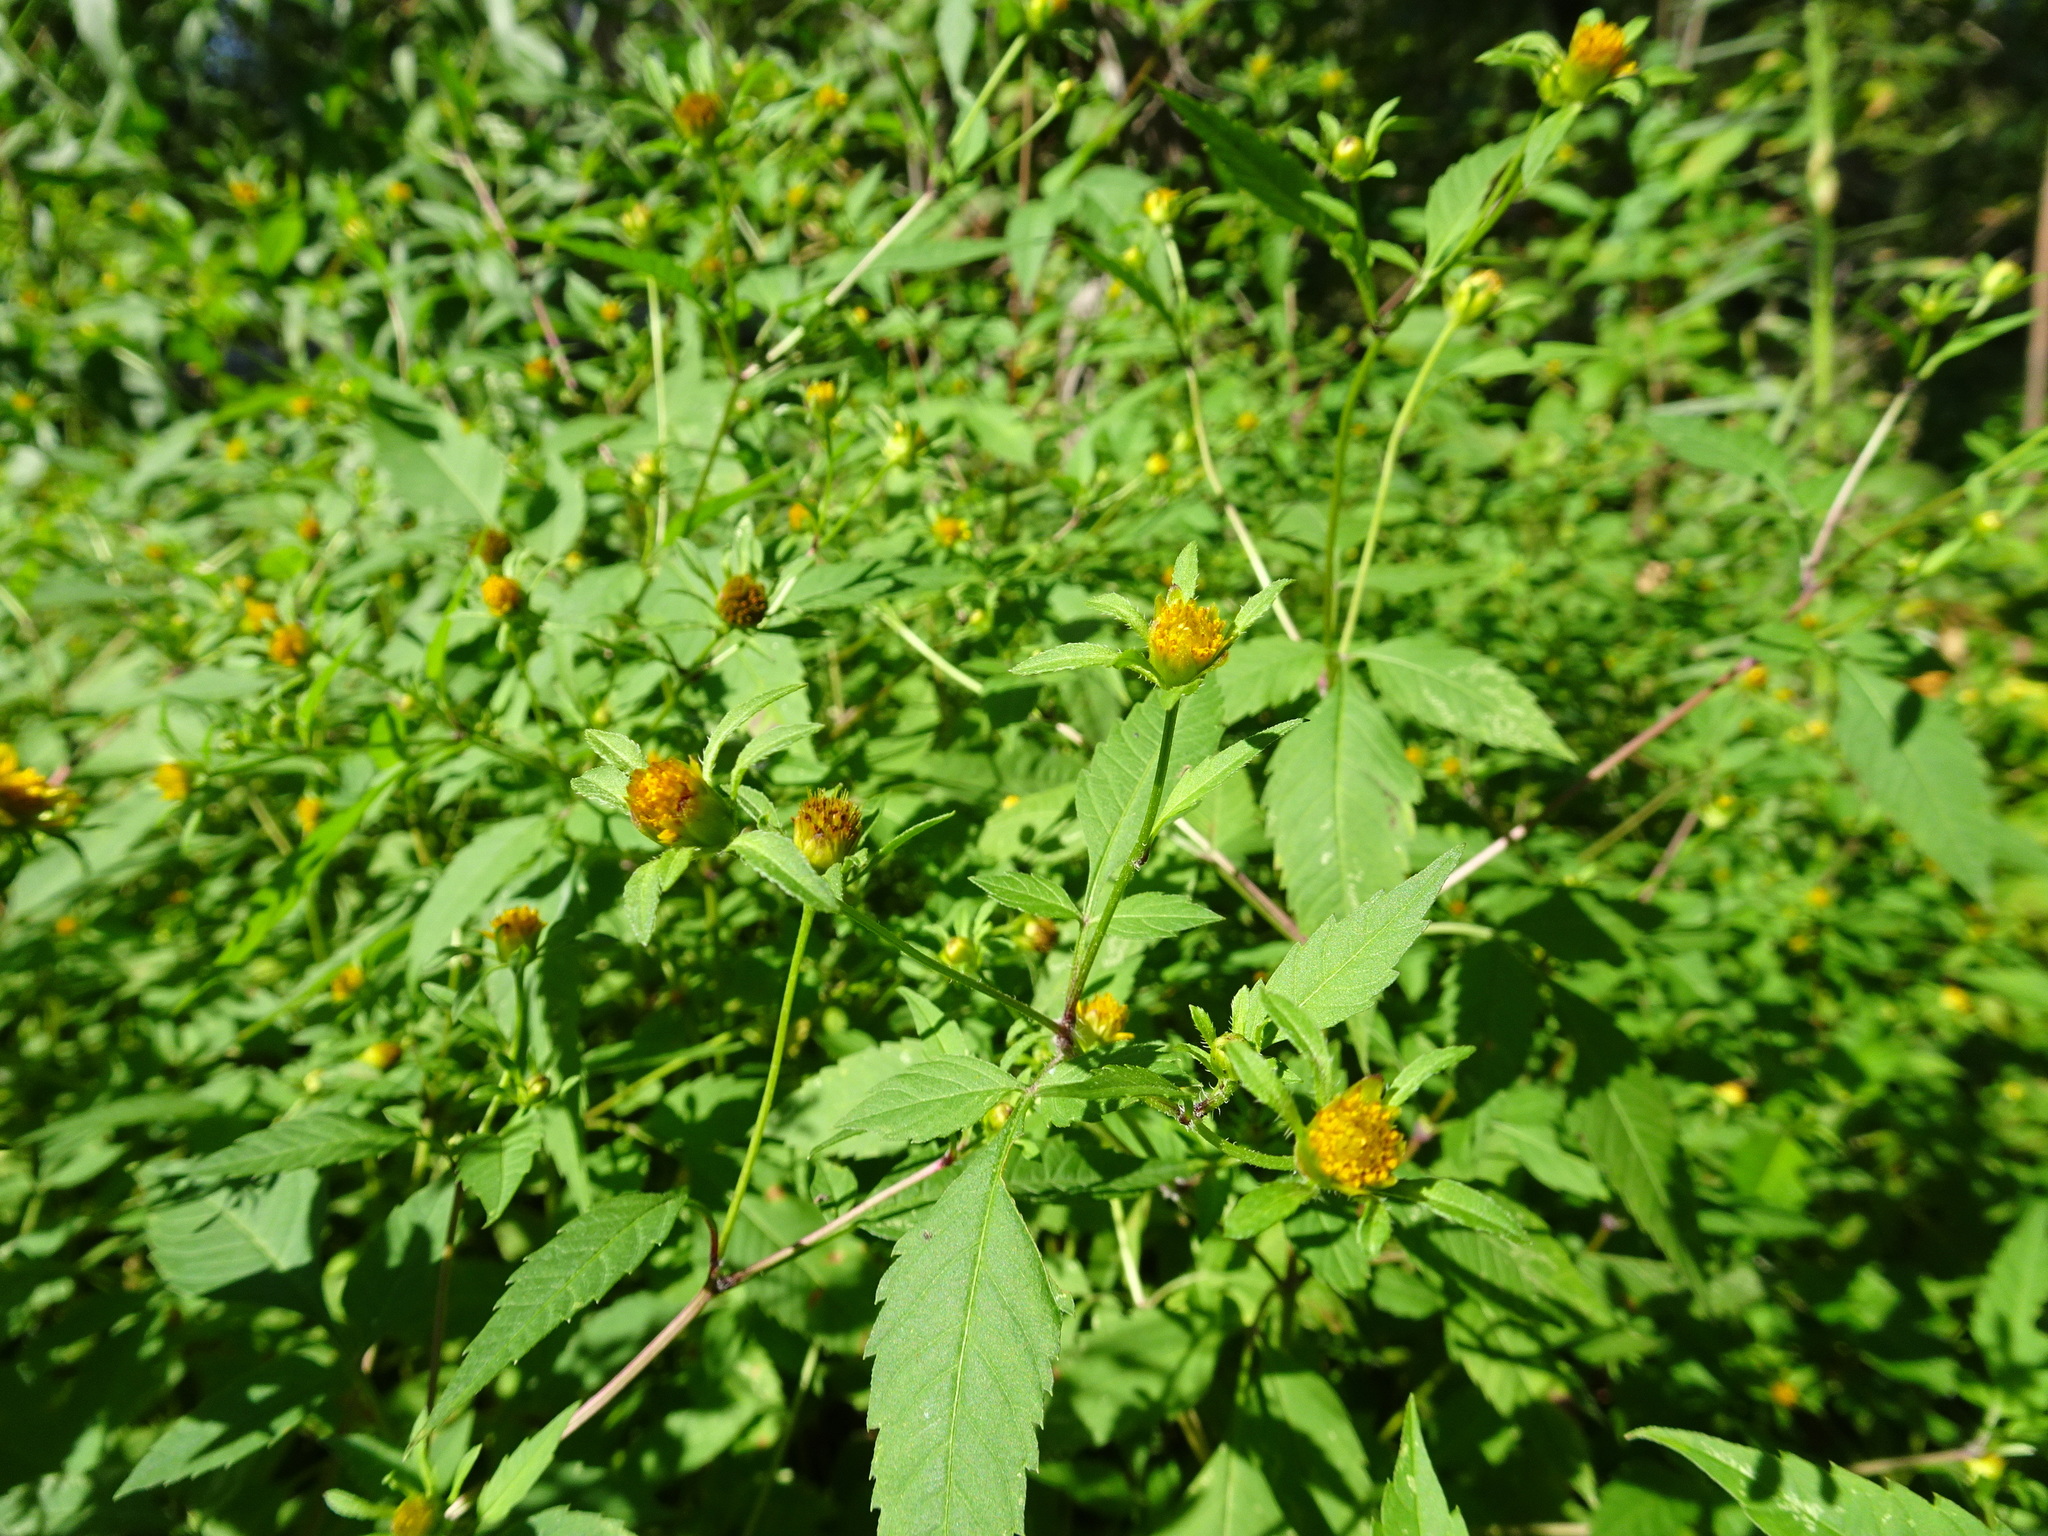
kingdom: Plantae
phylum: Tracheophyta
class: Magnoliopsida
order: Asterales
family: Asteraceae
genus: Bidens
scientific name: Bidens frondosa
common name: Beggarticks
